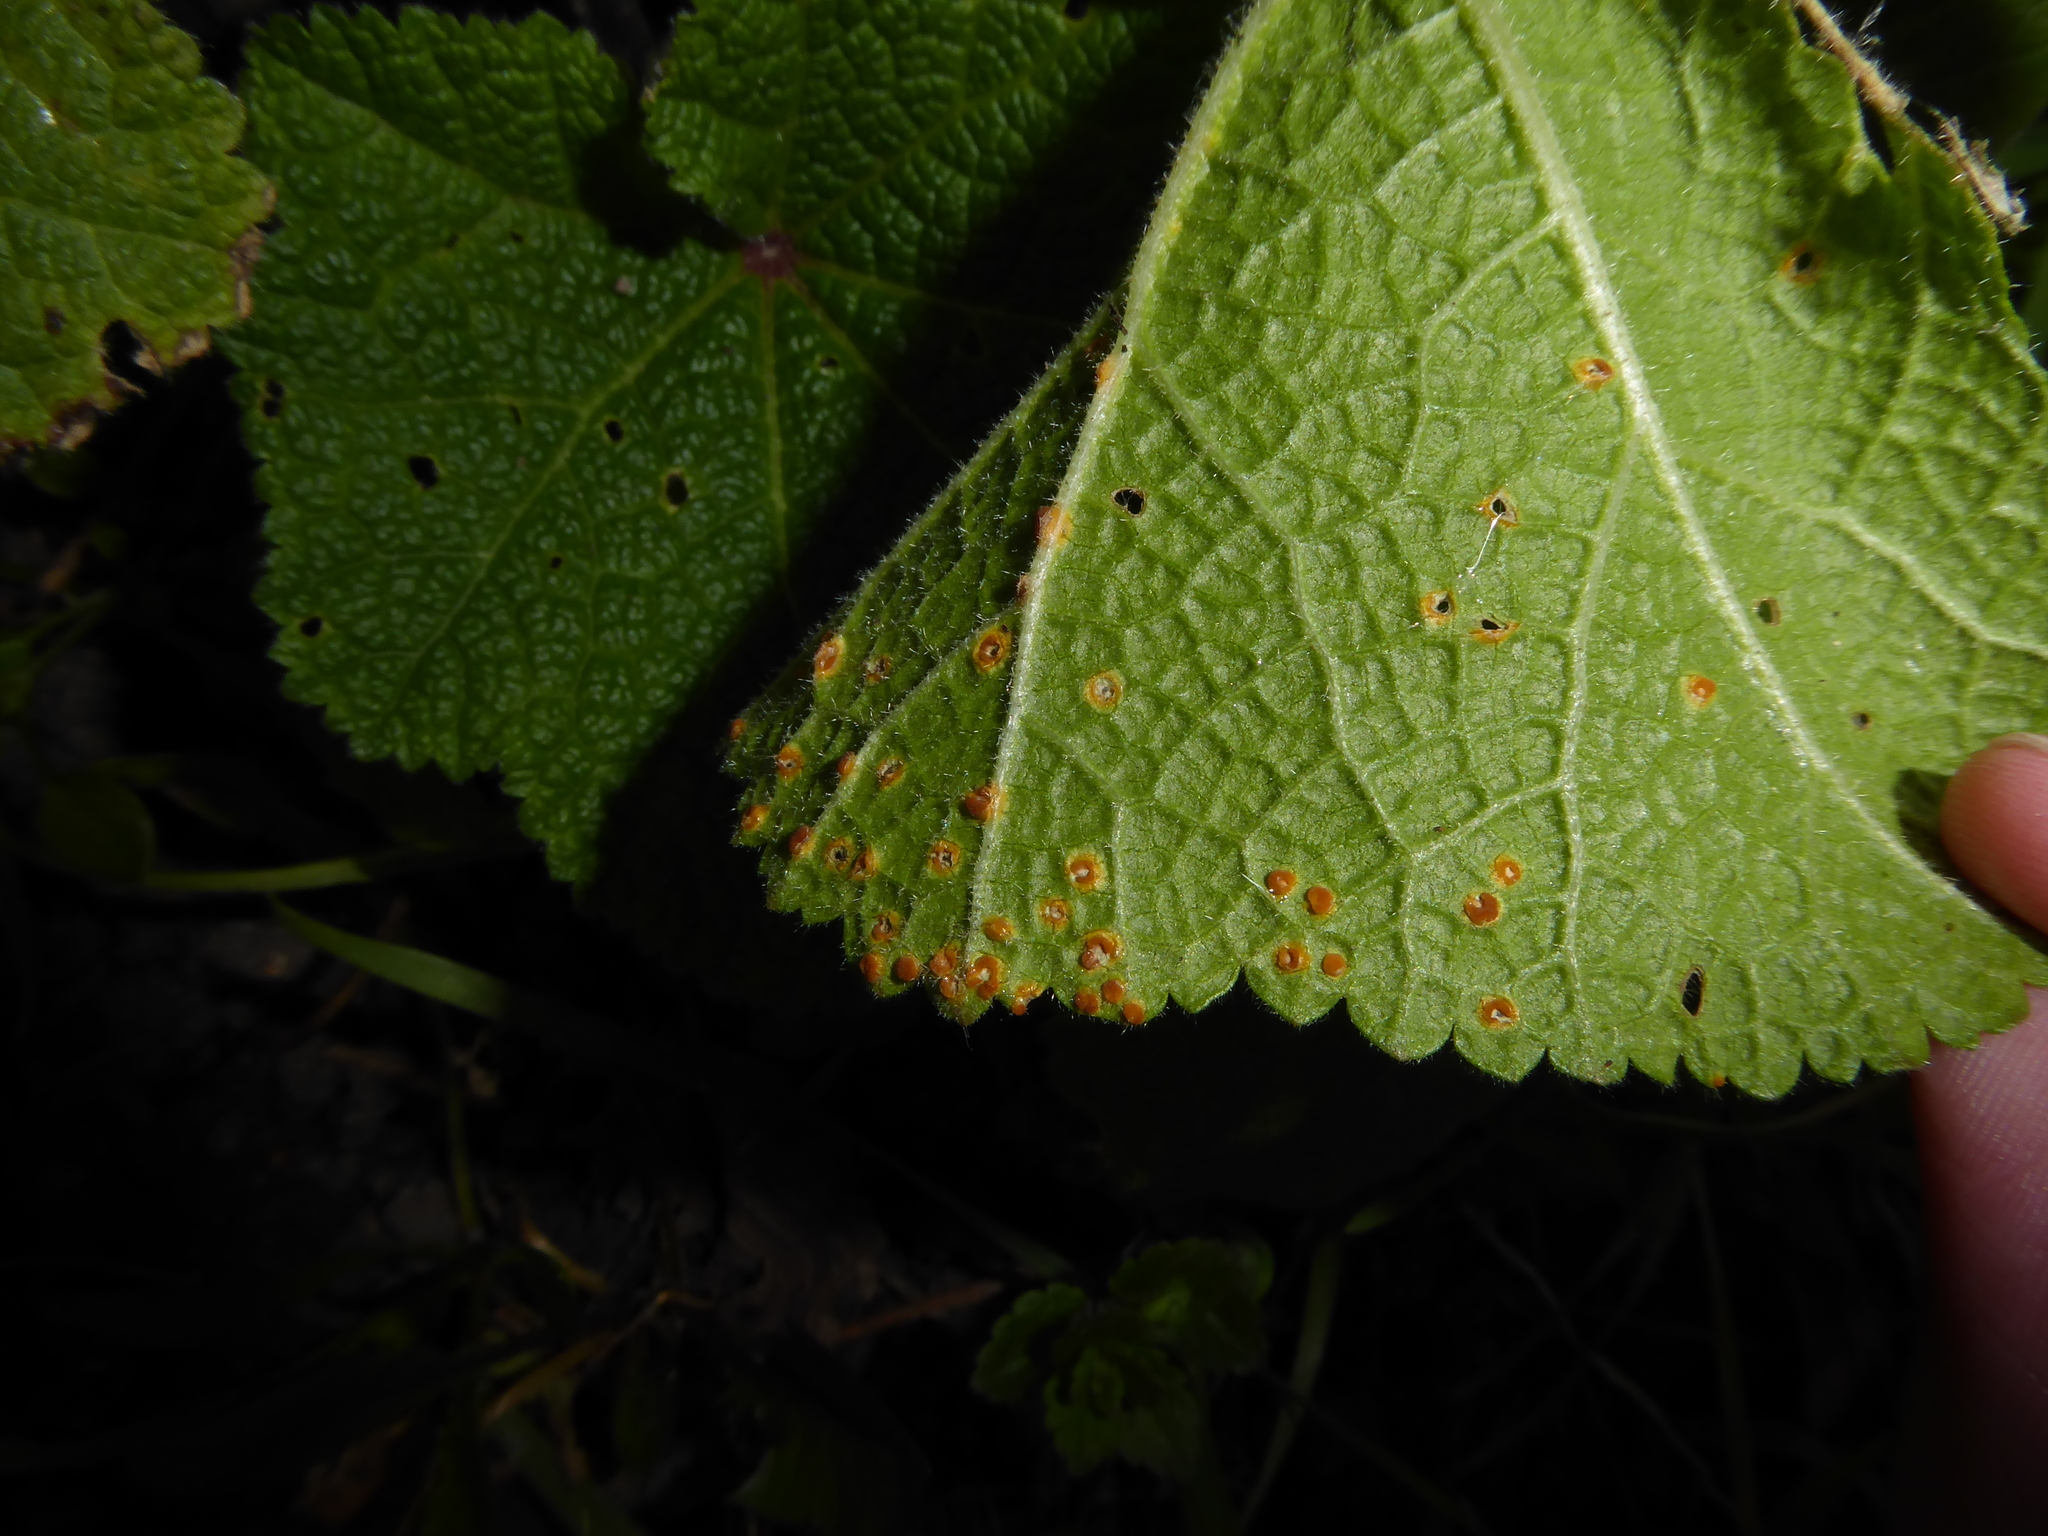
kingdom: Plantae
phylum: Tracheophyta
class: Magnoliopsida
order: Malvales
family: Malvaceae
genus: Alcea
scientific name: Alcea rosea
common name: Hollyhock
